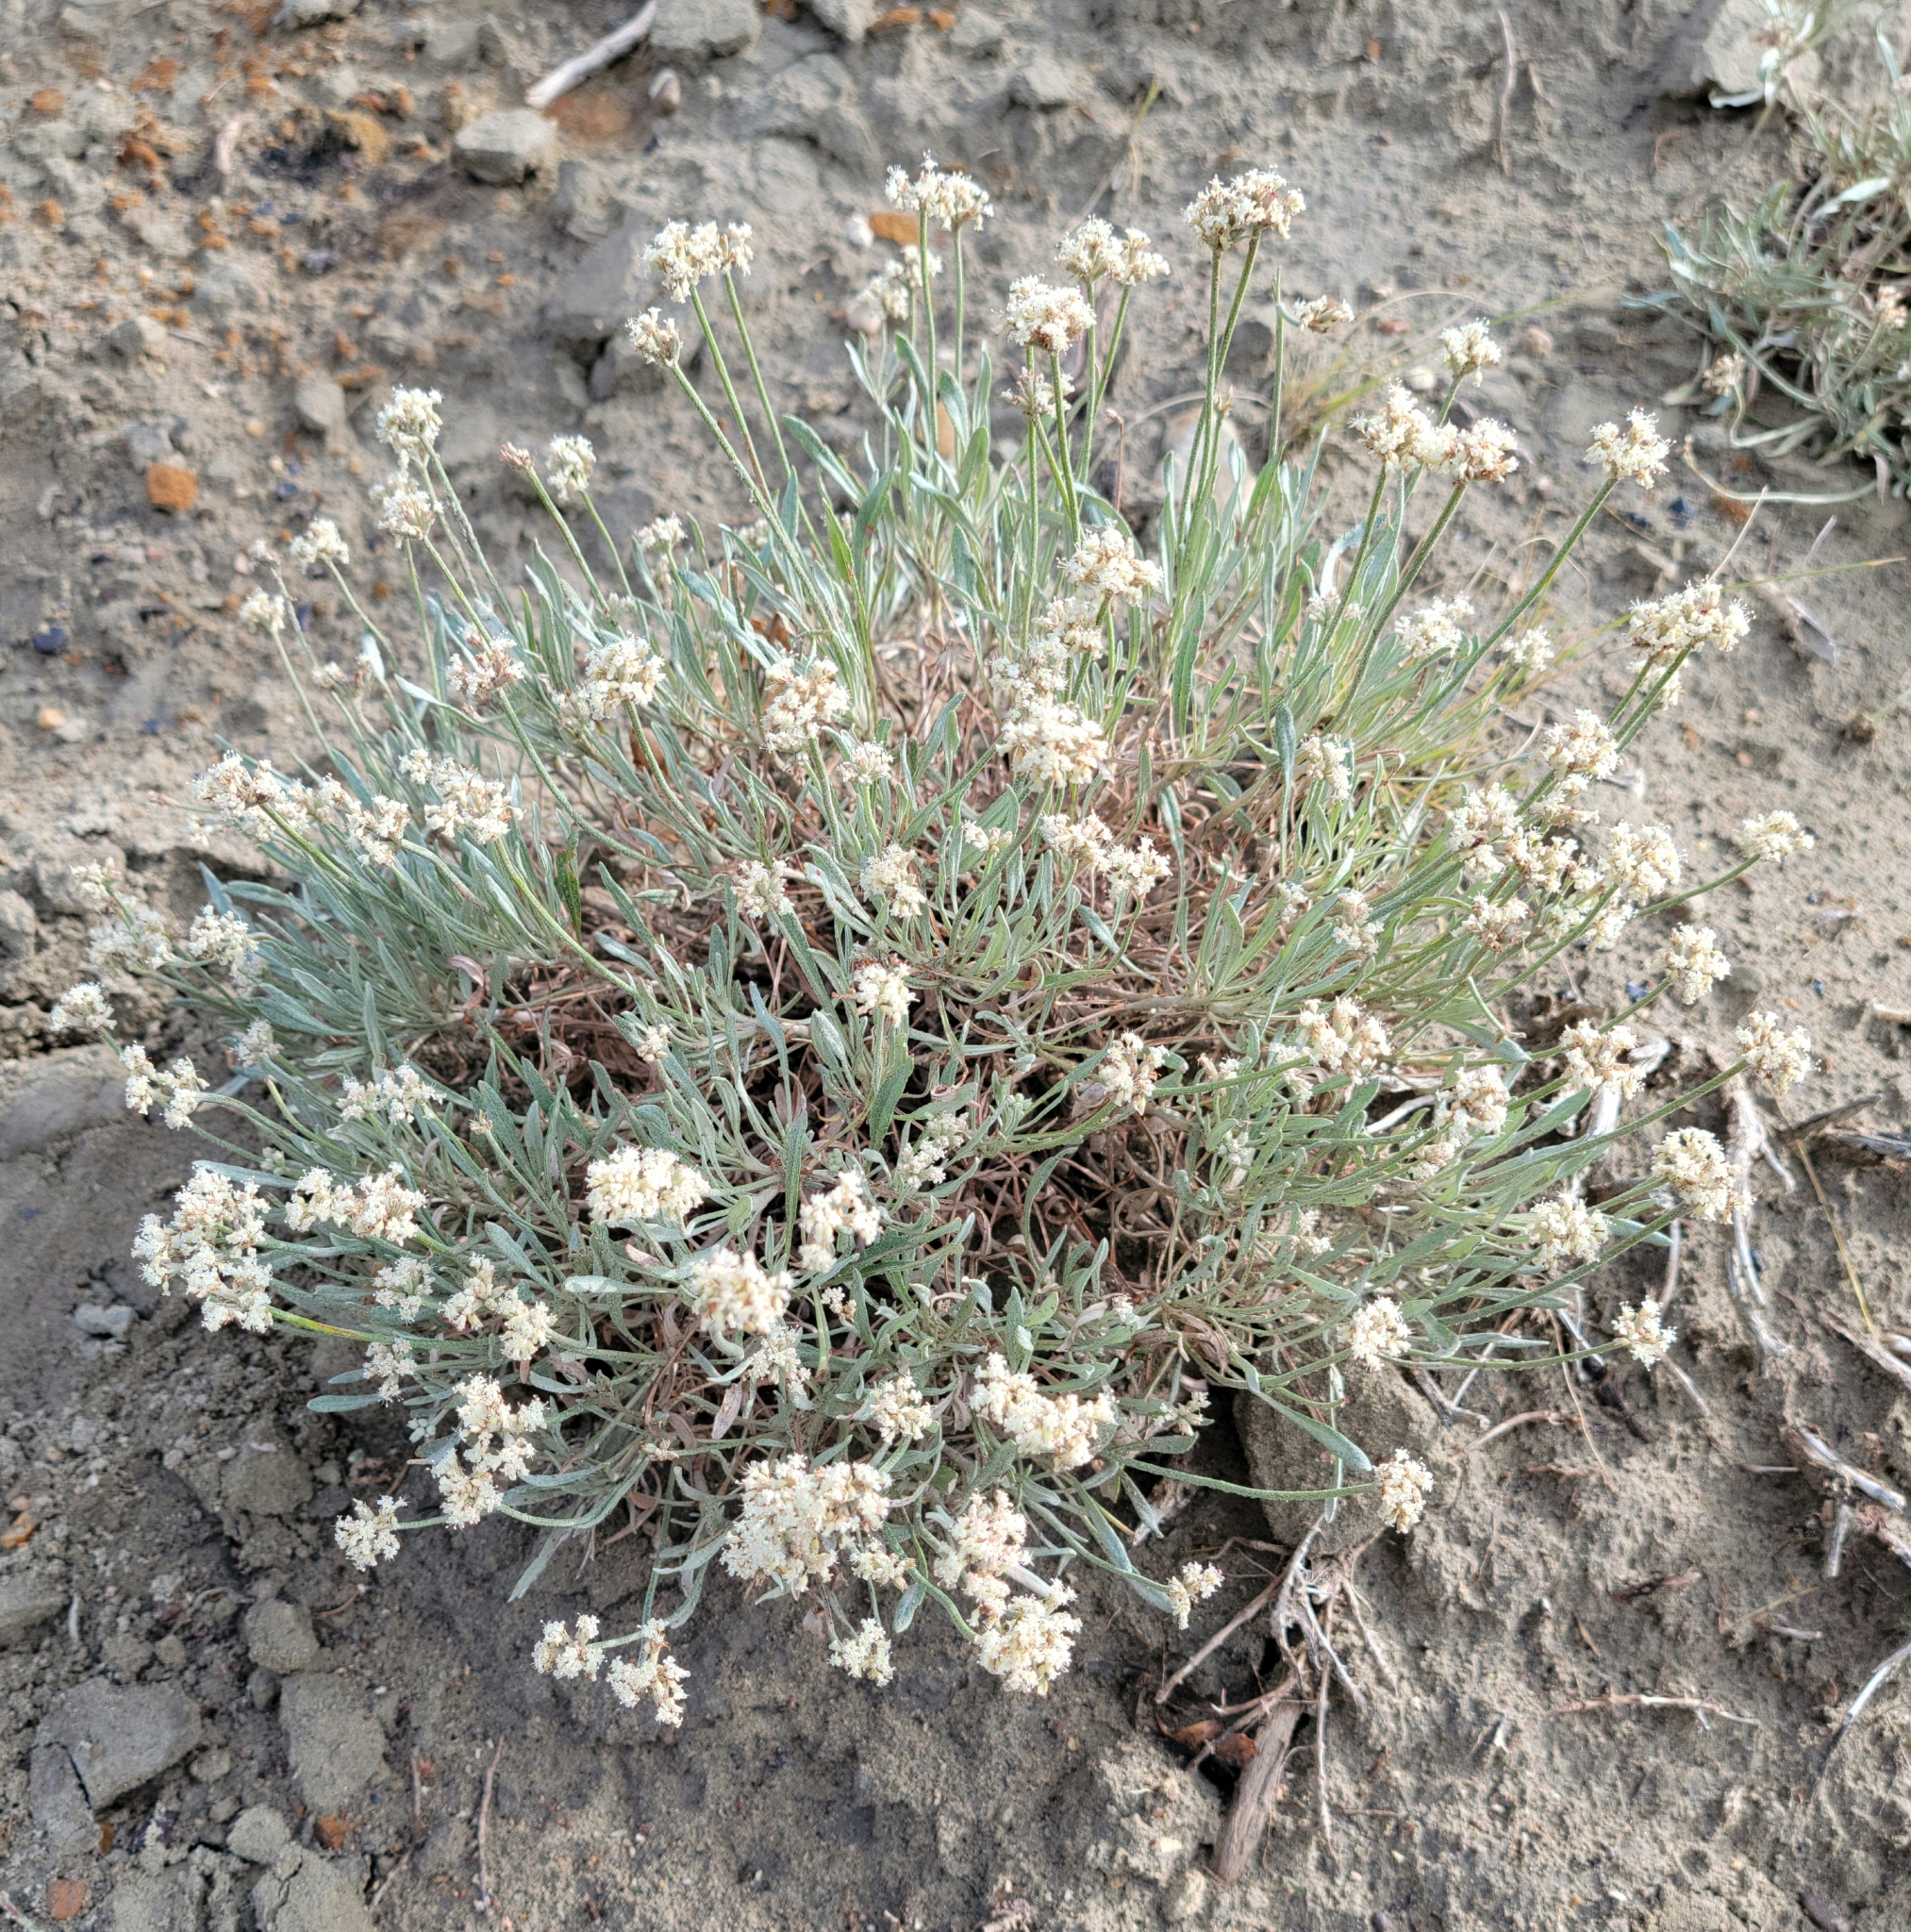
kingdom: Plantae
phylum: Tracheophyta
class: Magnoliopsida
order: Caryophyllales
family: Polygonaceae
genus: Eriogonum
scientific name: Eriogonum pauciflorum
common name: Few-flower wild buckwheat
